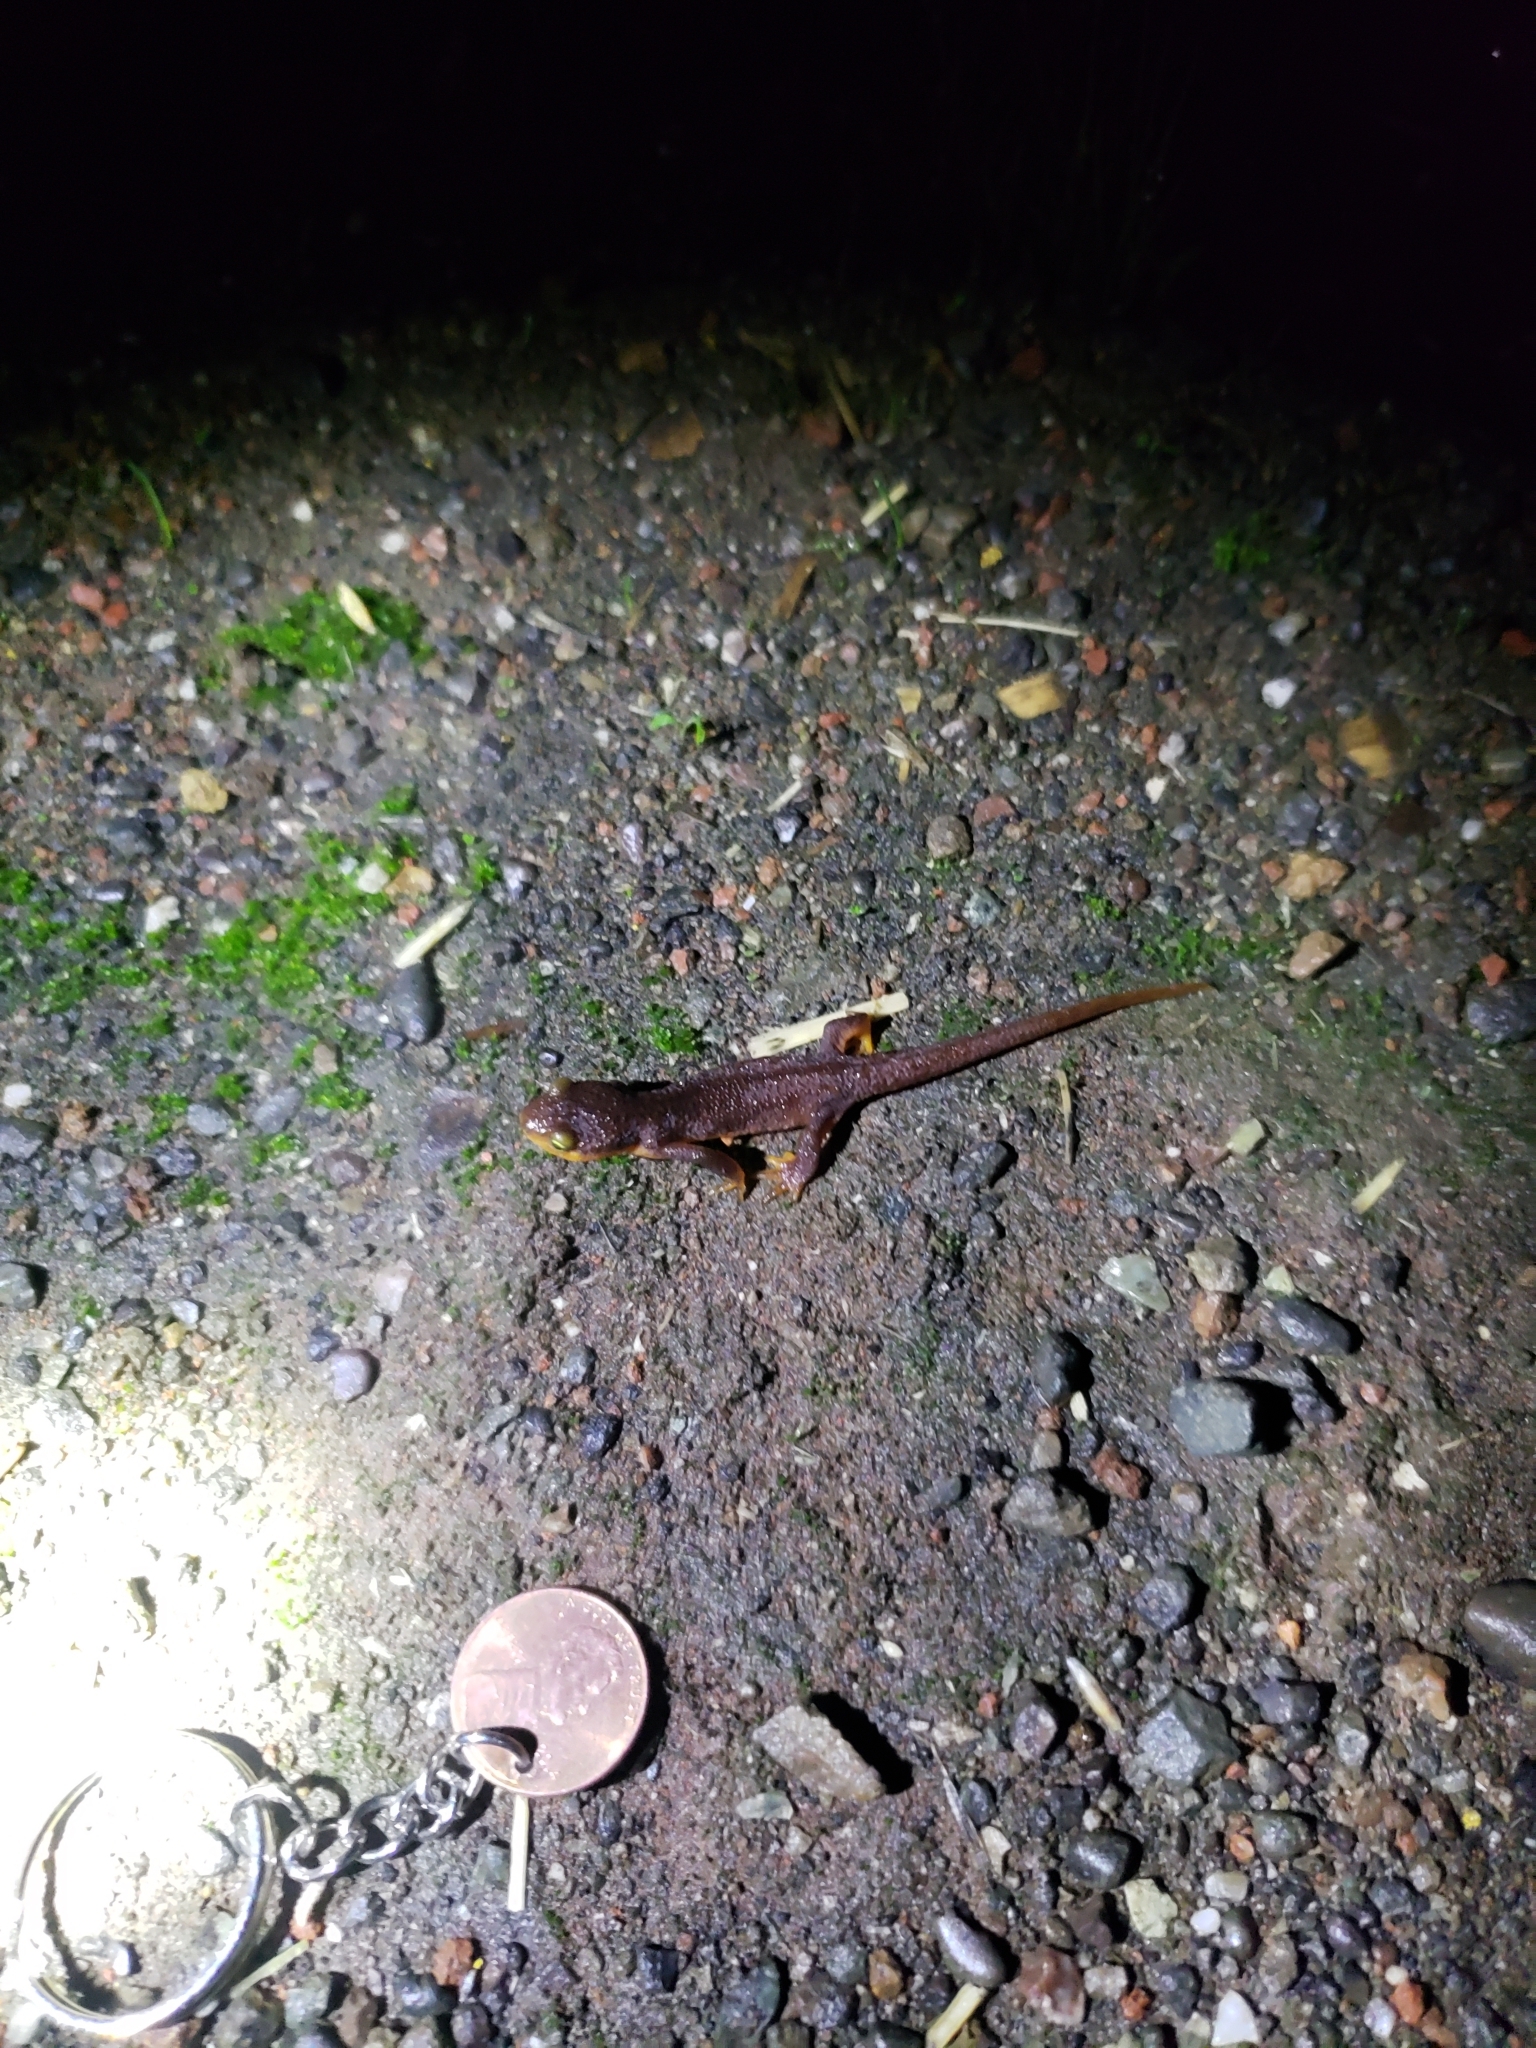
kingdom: Animalia
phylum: Chordata
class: Amphibia
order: Caudata
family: Salamandridae
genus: Taricha
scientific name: Taricha torosa
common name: California newt
